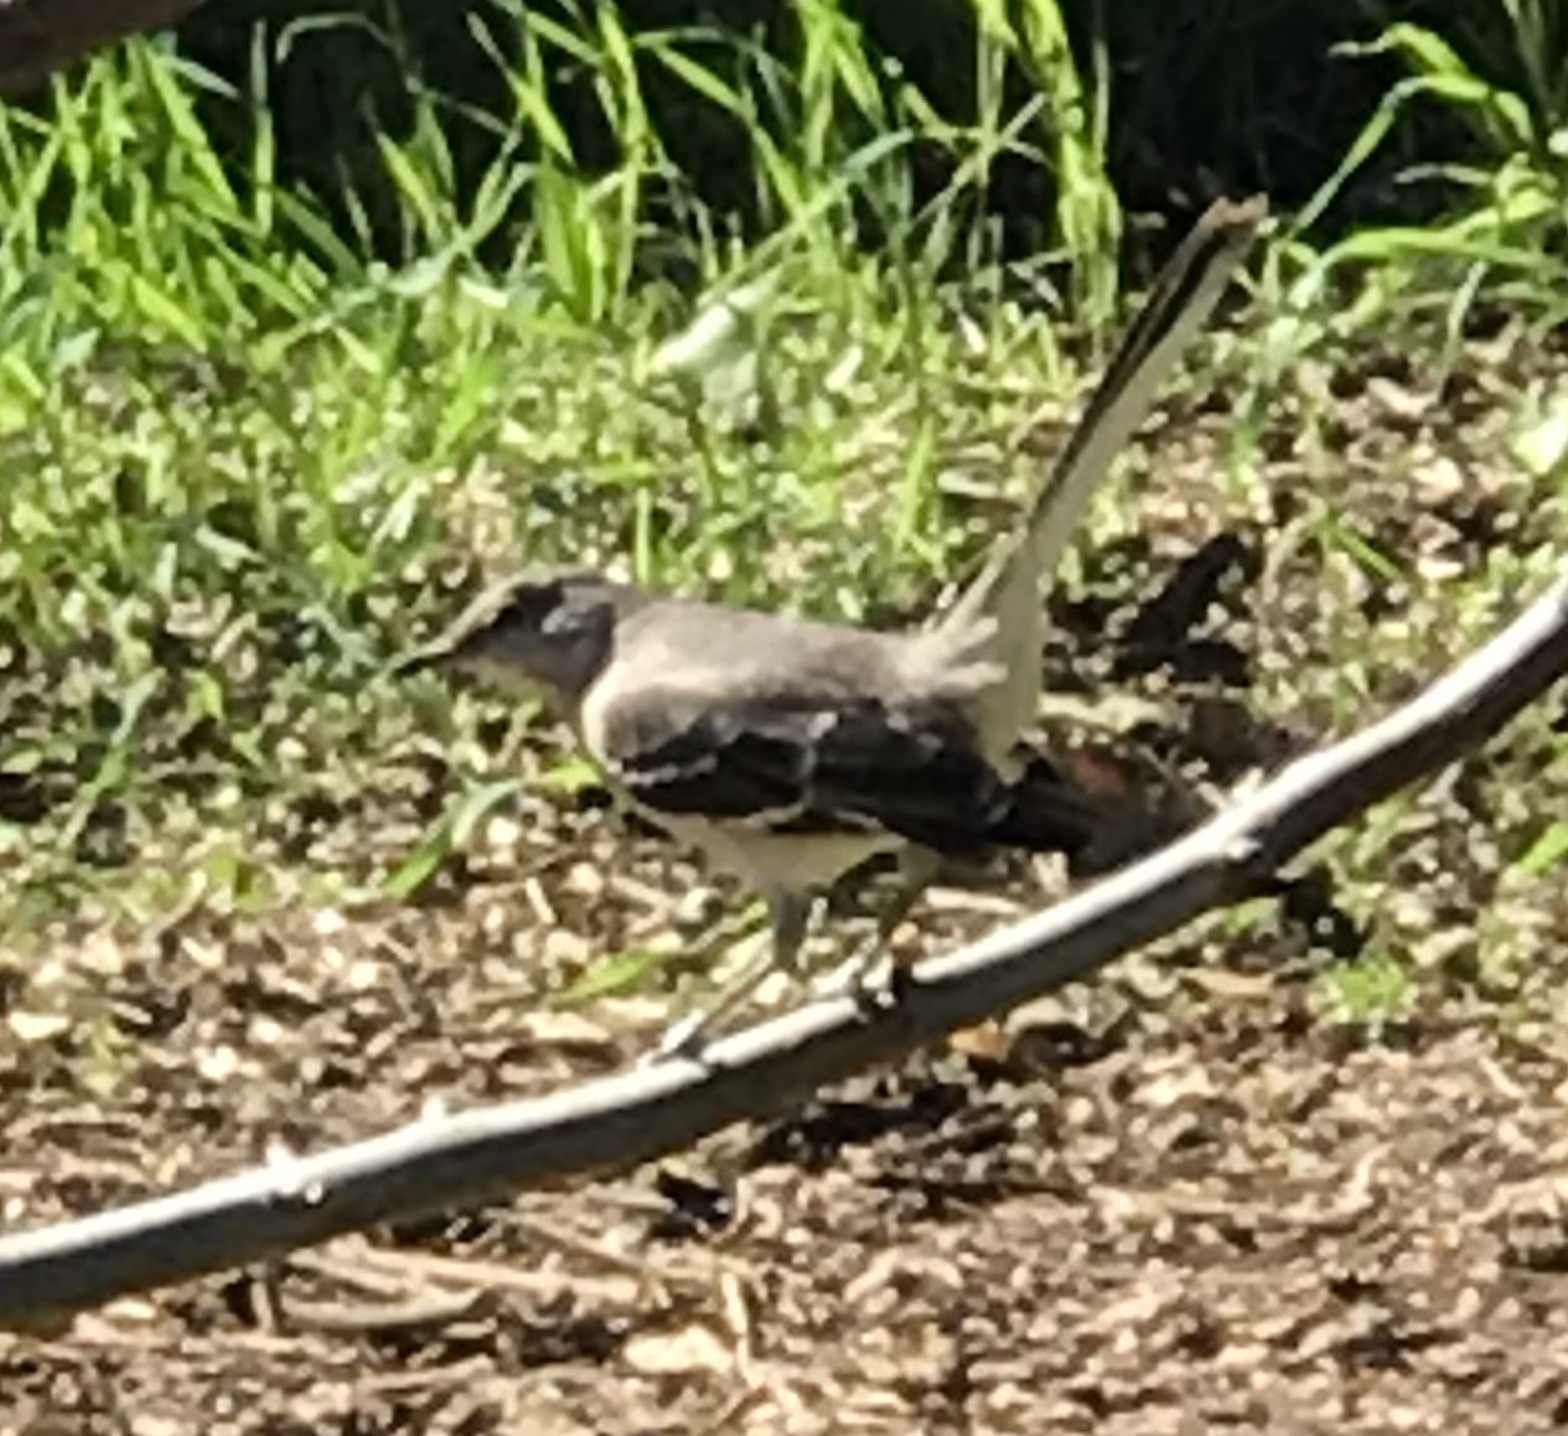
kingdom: Animalia
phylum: Chordata
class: Aves
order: Passeriformes
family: Mimidae
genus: Mimus
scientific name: Mimus polyglottos
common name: Northern mockingbird
